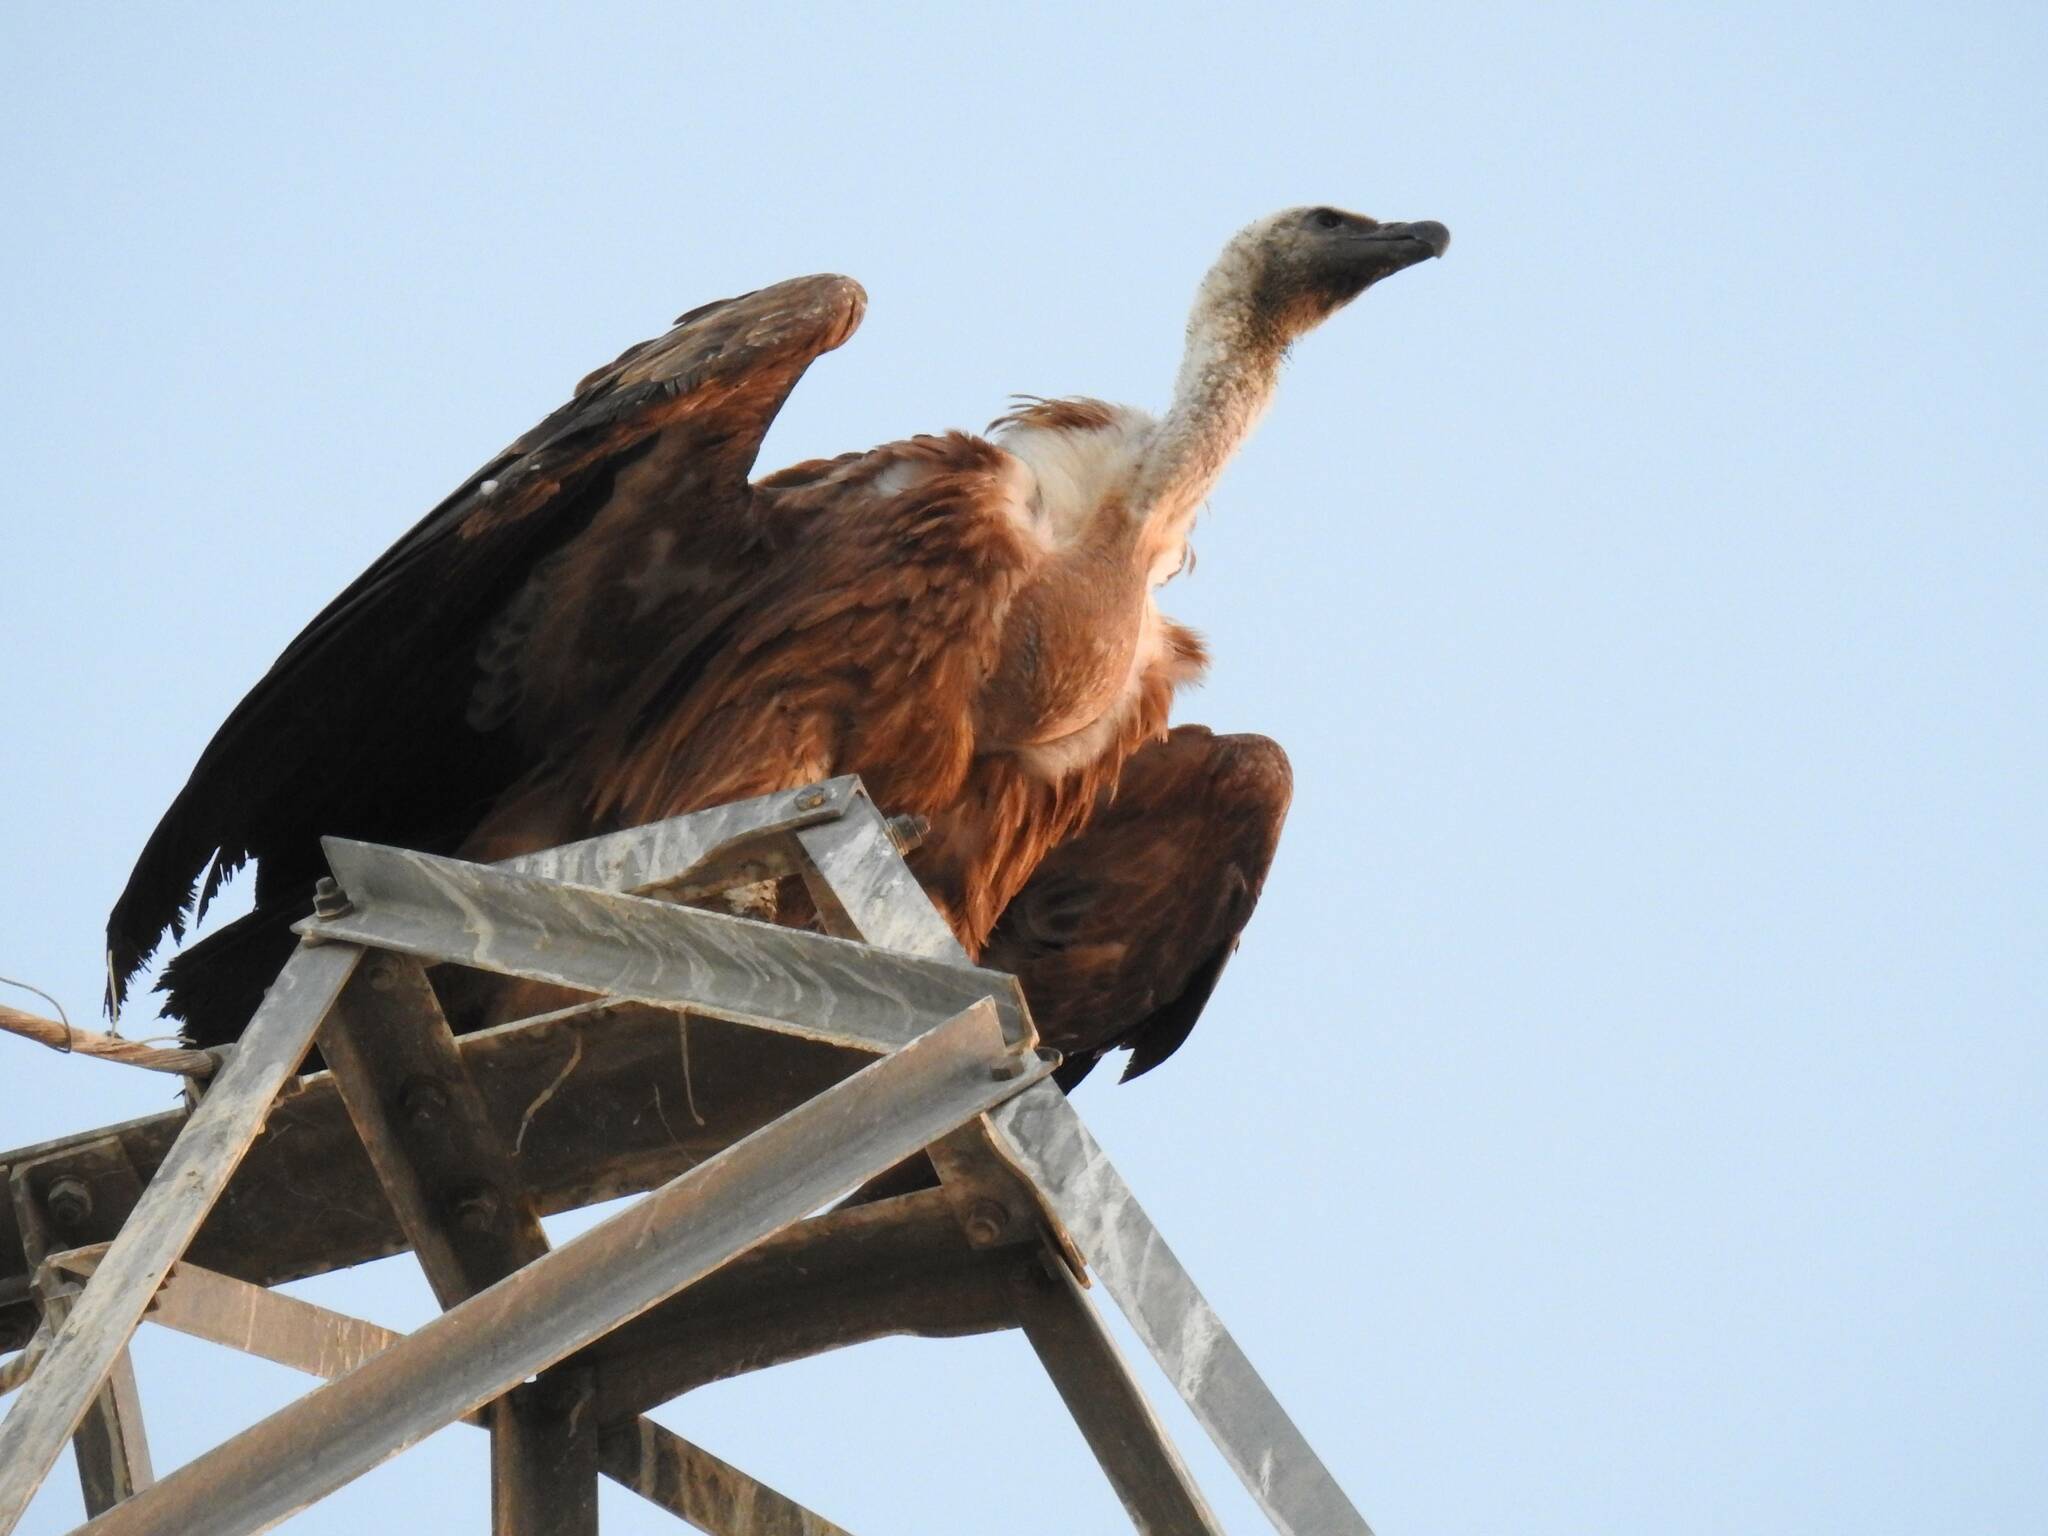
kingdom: Animalia
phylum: Chordata
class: Aves
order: Accipitriformes
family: Accipitridae
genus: Gyps
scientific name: Gyps fulvus
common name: Griffon vulture
